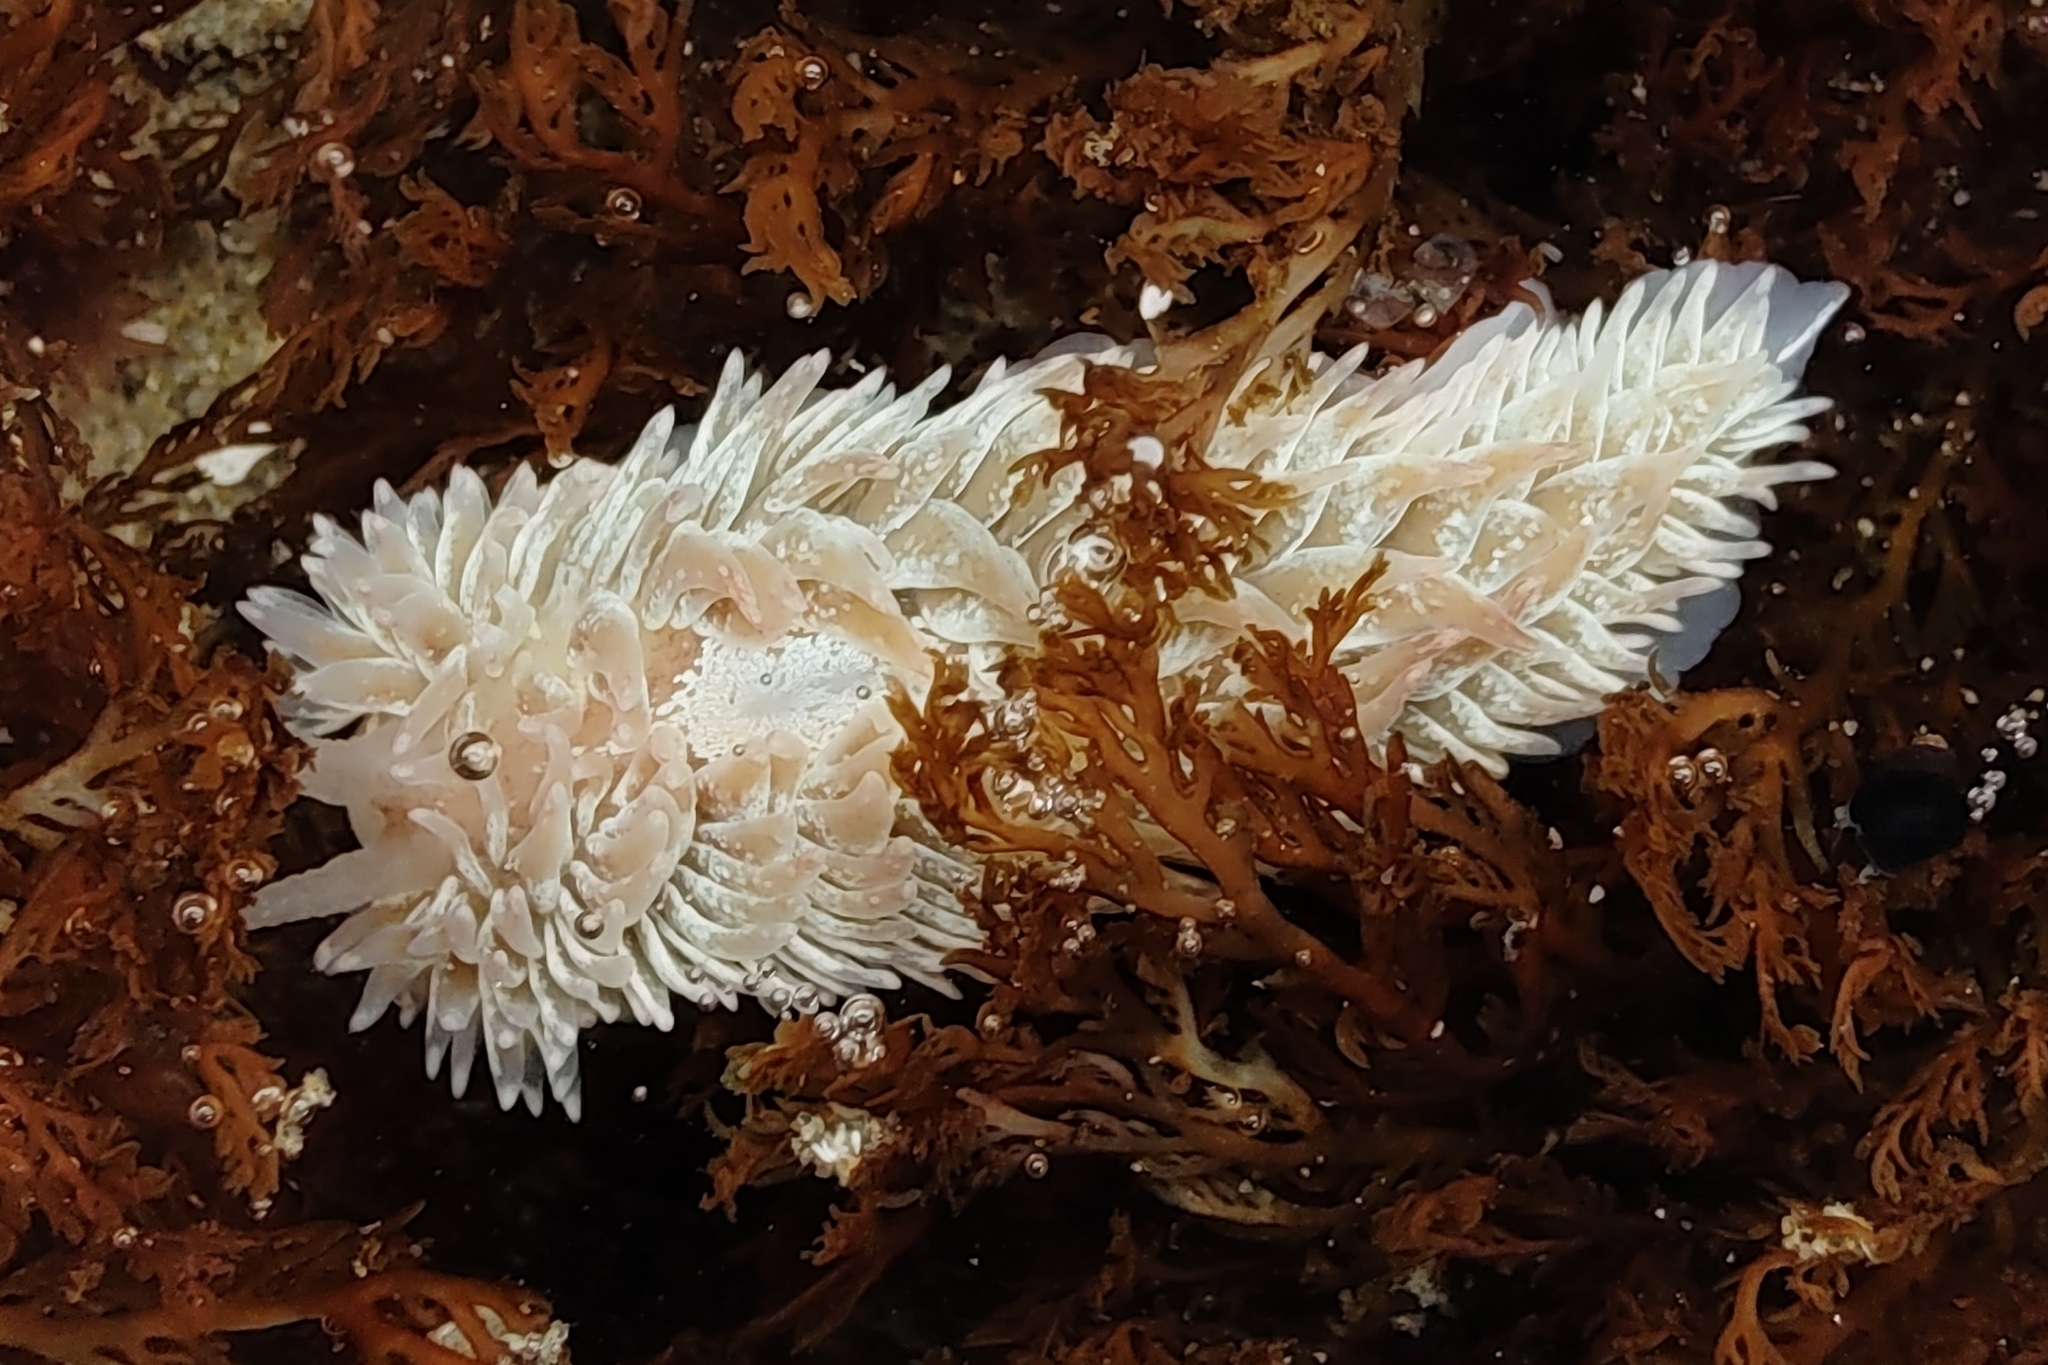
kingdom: Animalia
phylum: Mollusca
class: Gastropoda
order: Nudibranchia
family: Aeolidiidae
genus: Aeolidia
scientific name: Aeolidia loui
